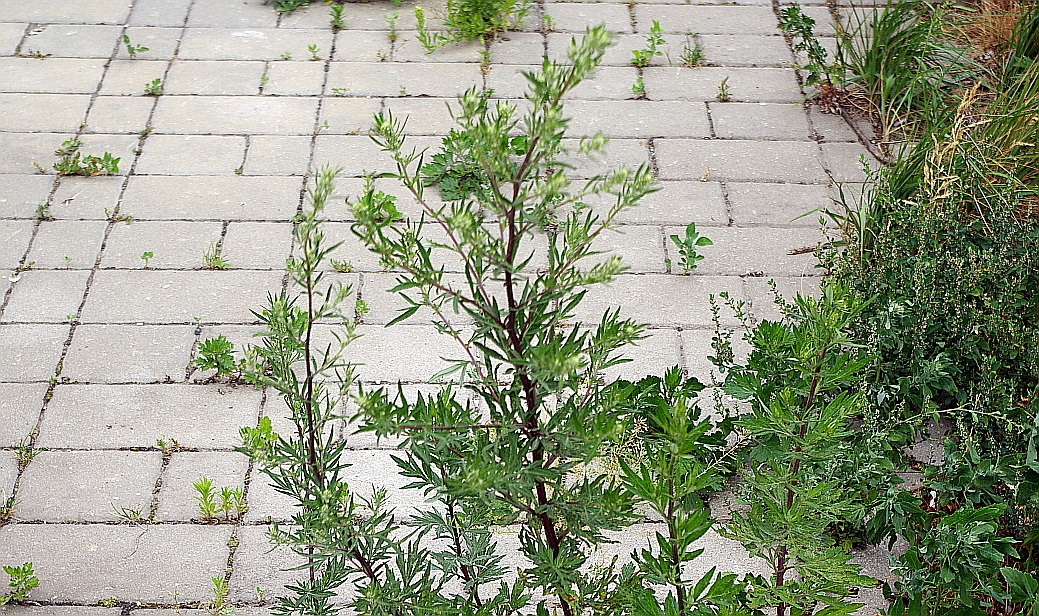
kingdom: Plantae
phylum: Tracheophyta
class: Magnoliopsida
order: Asterales
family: Asteraceae
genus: Artemisia
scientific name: Artemisia vulgaris
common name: Mugwort
